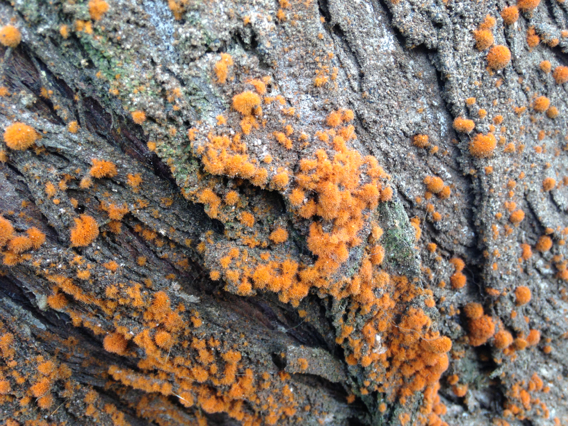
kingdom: Plantae
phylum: Chlorophyta
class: Ulvophyceae
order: Trentepohliales
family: Trentepohliaceae
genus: Trentepohlia
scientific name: Trentepohlia aurea
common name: Orange rock hair
